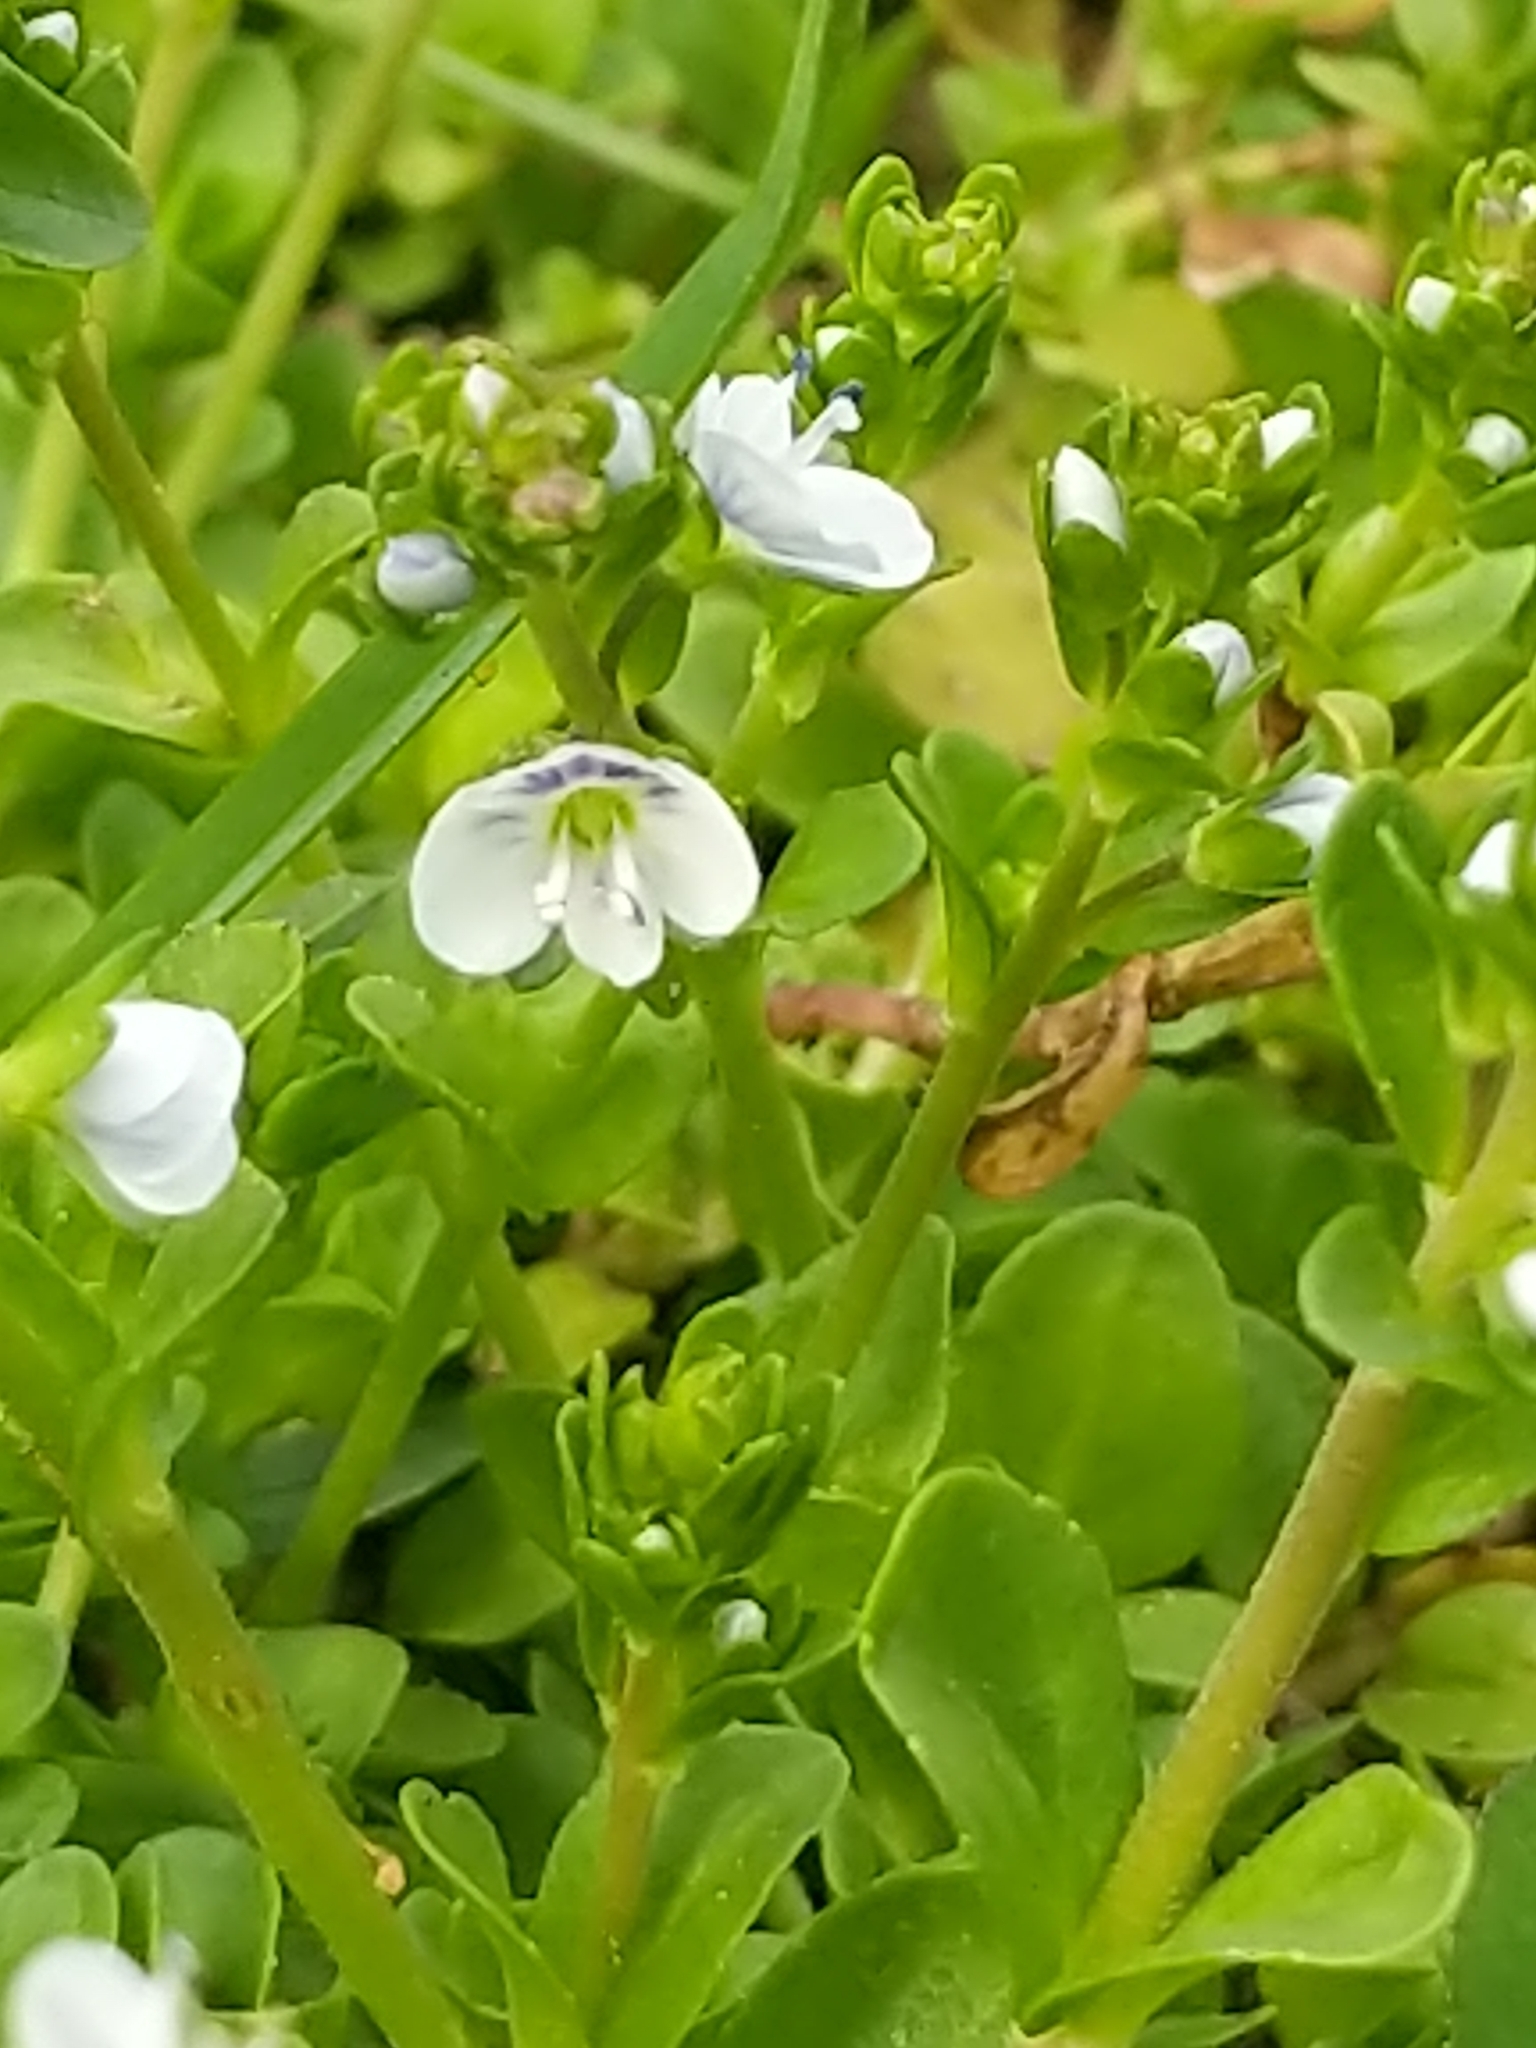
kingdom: Plantae
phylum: Tracheophyta
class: Magnoliopsida
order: Lamiales
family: Plantaginaceae
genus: Veronica
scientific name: Veronica serpyllifolia
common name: Thyme-leaved speedwell
